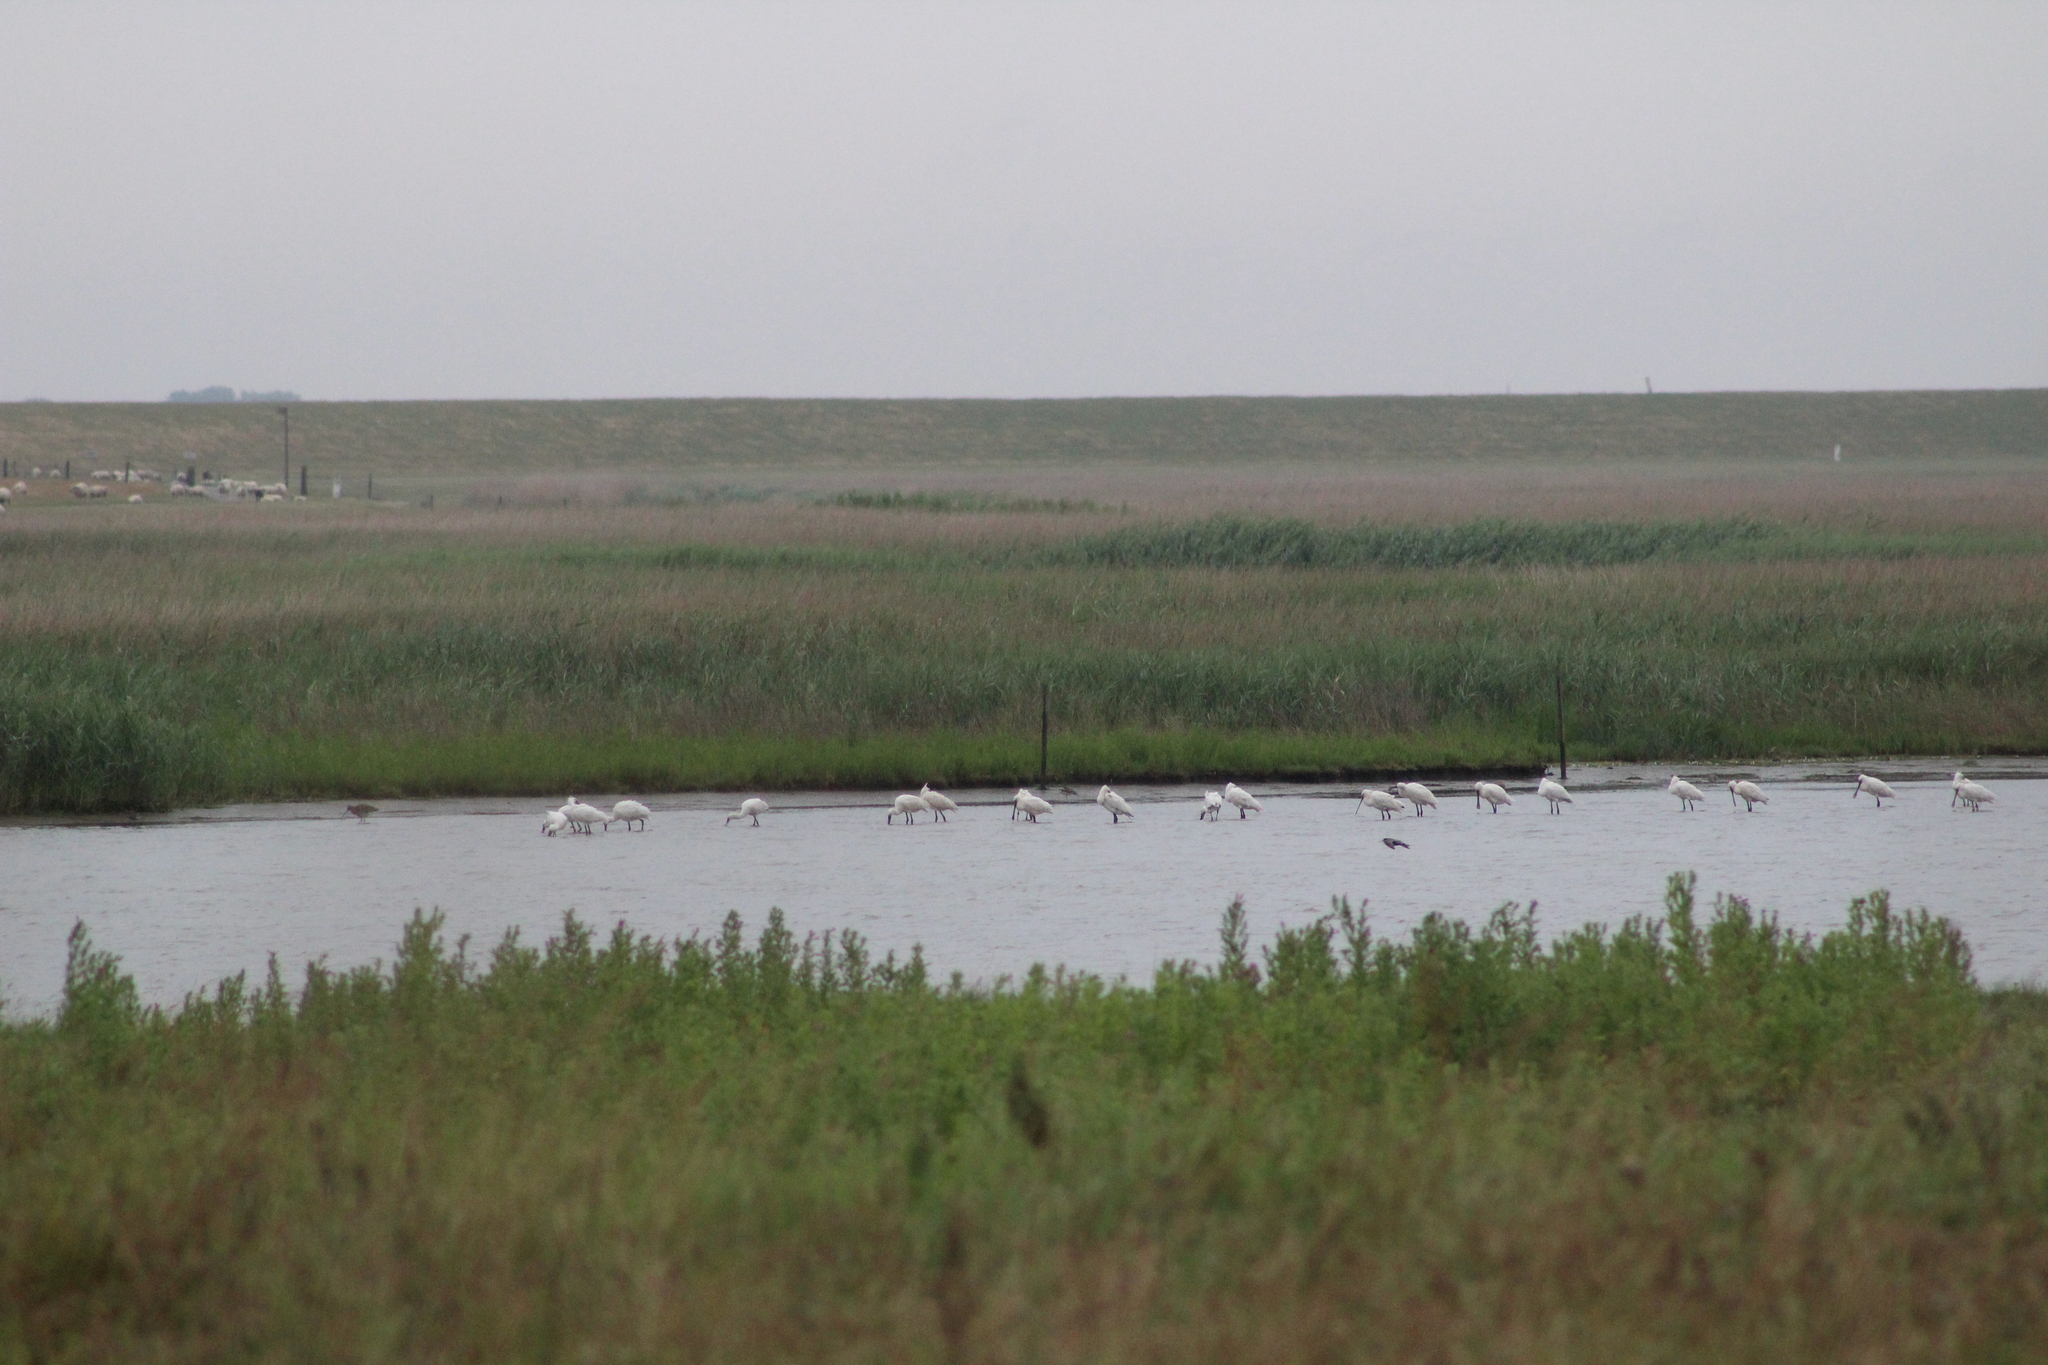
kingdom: Animalia
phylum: Chordata
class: Aves
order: Pelecaniformes
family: Threskiornithidae
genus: Platalea
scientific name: Platalea leucorodia
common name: Eurasian spoonbill
